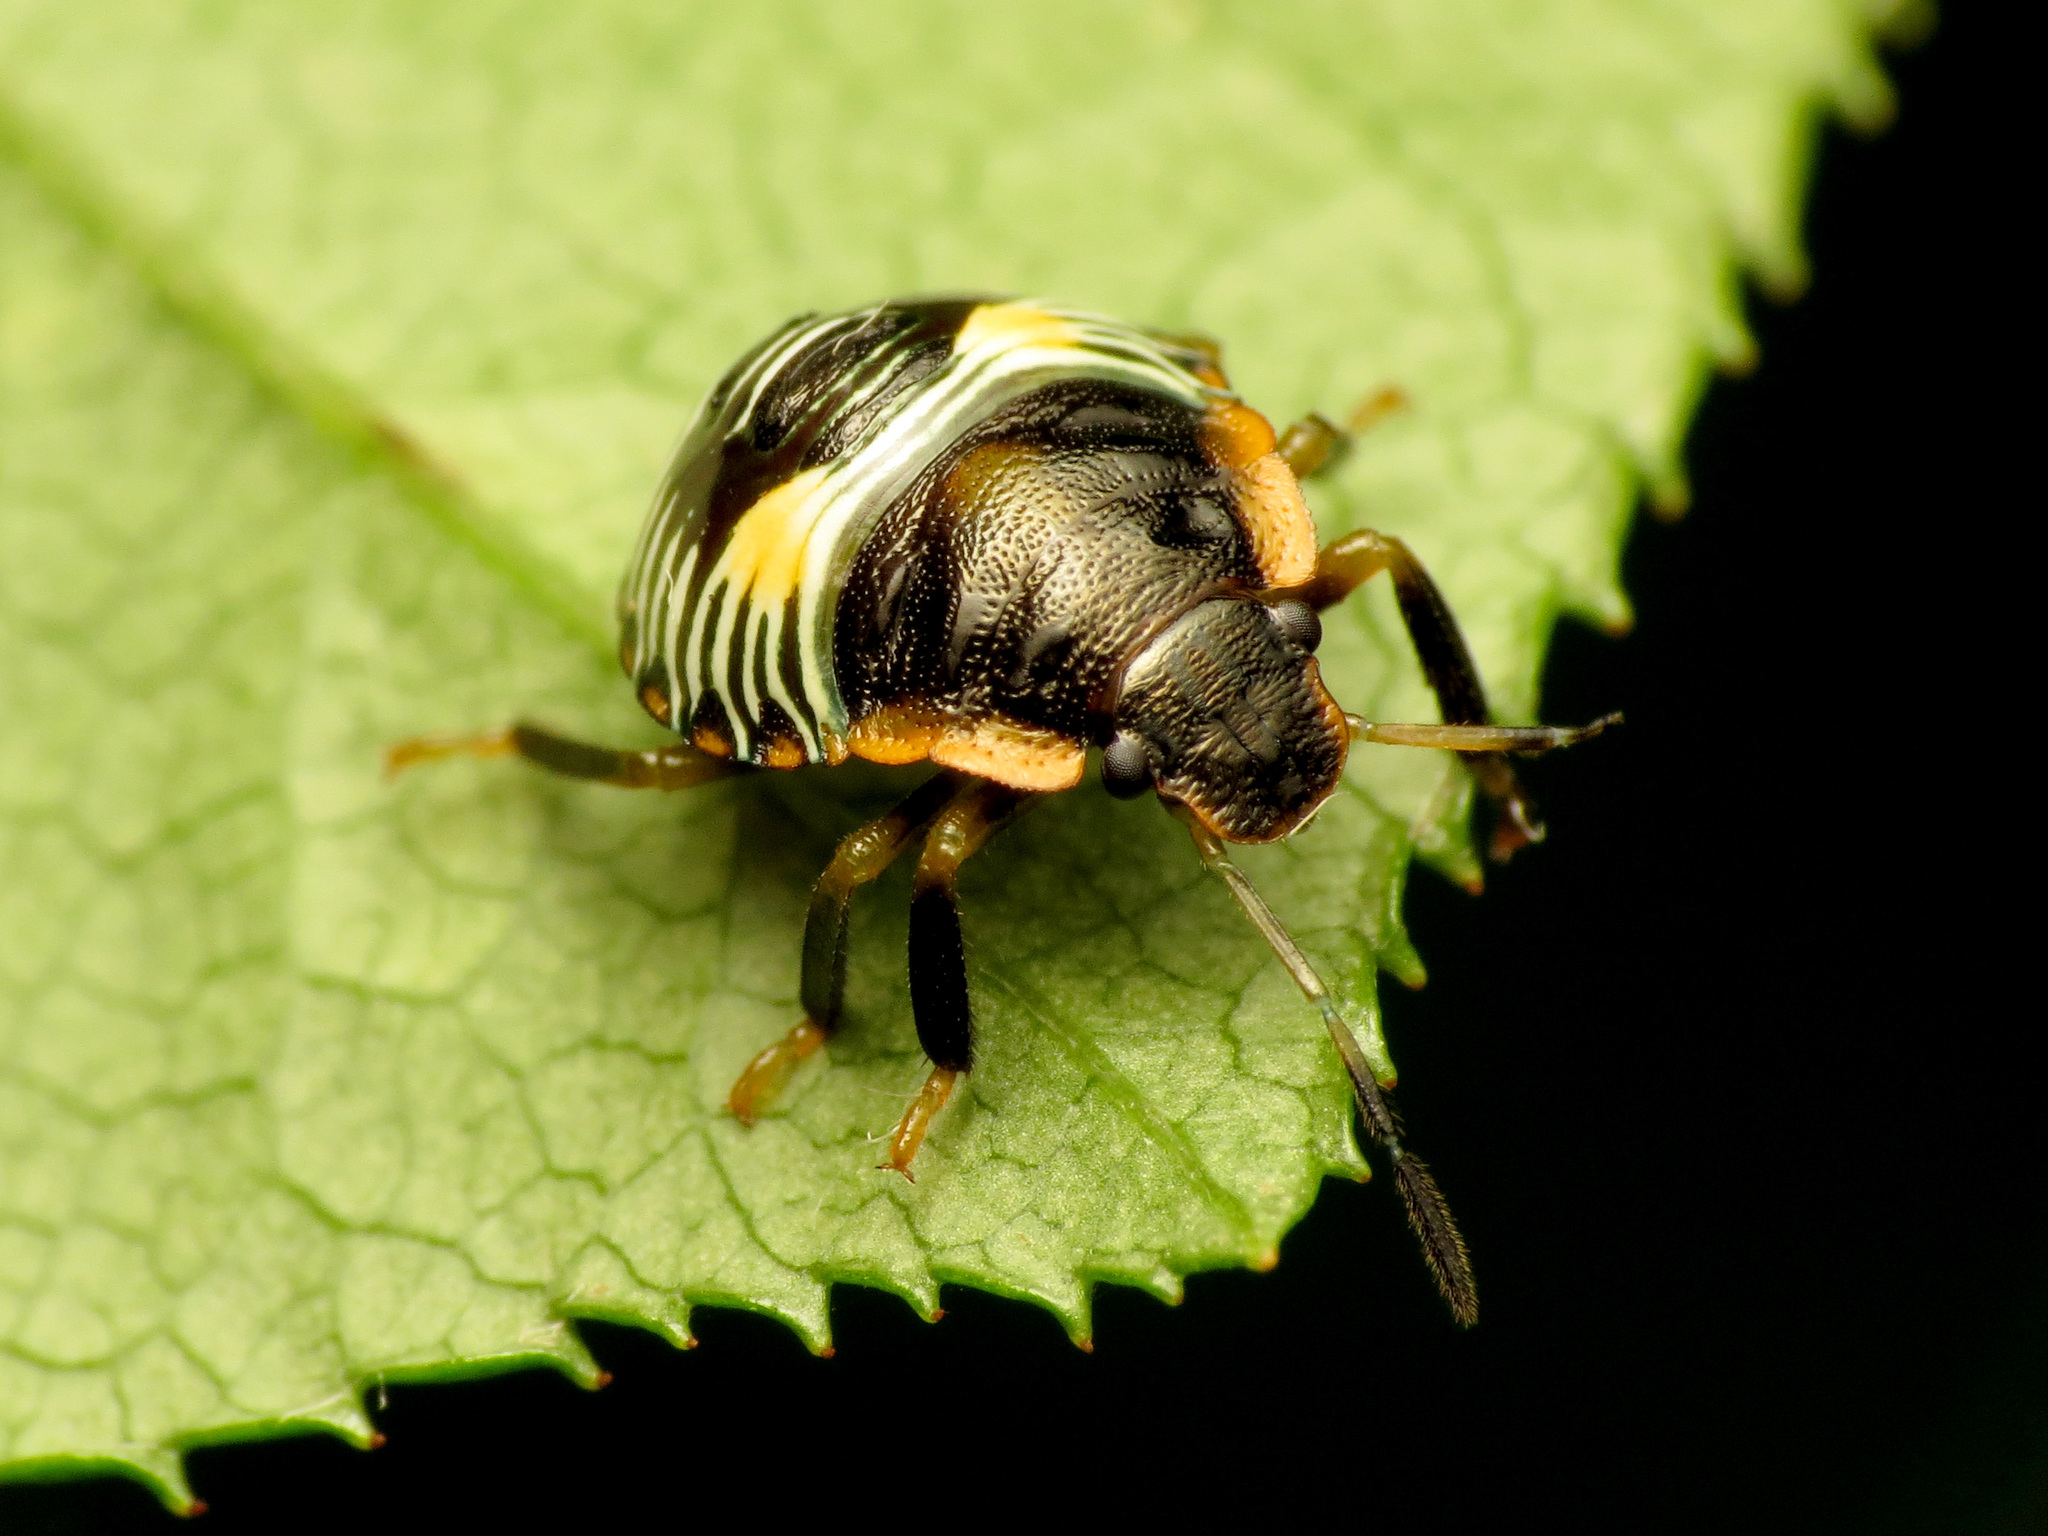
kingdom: Animalia
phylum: Arthropoda
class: Insecta
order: Hemiptera
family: Pentatomidae
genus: Chinavia
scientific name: Chinavia hilaris
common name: Green stink bug
